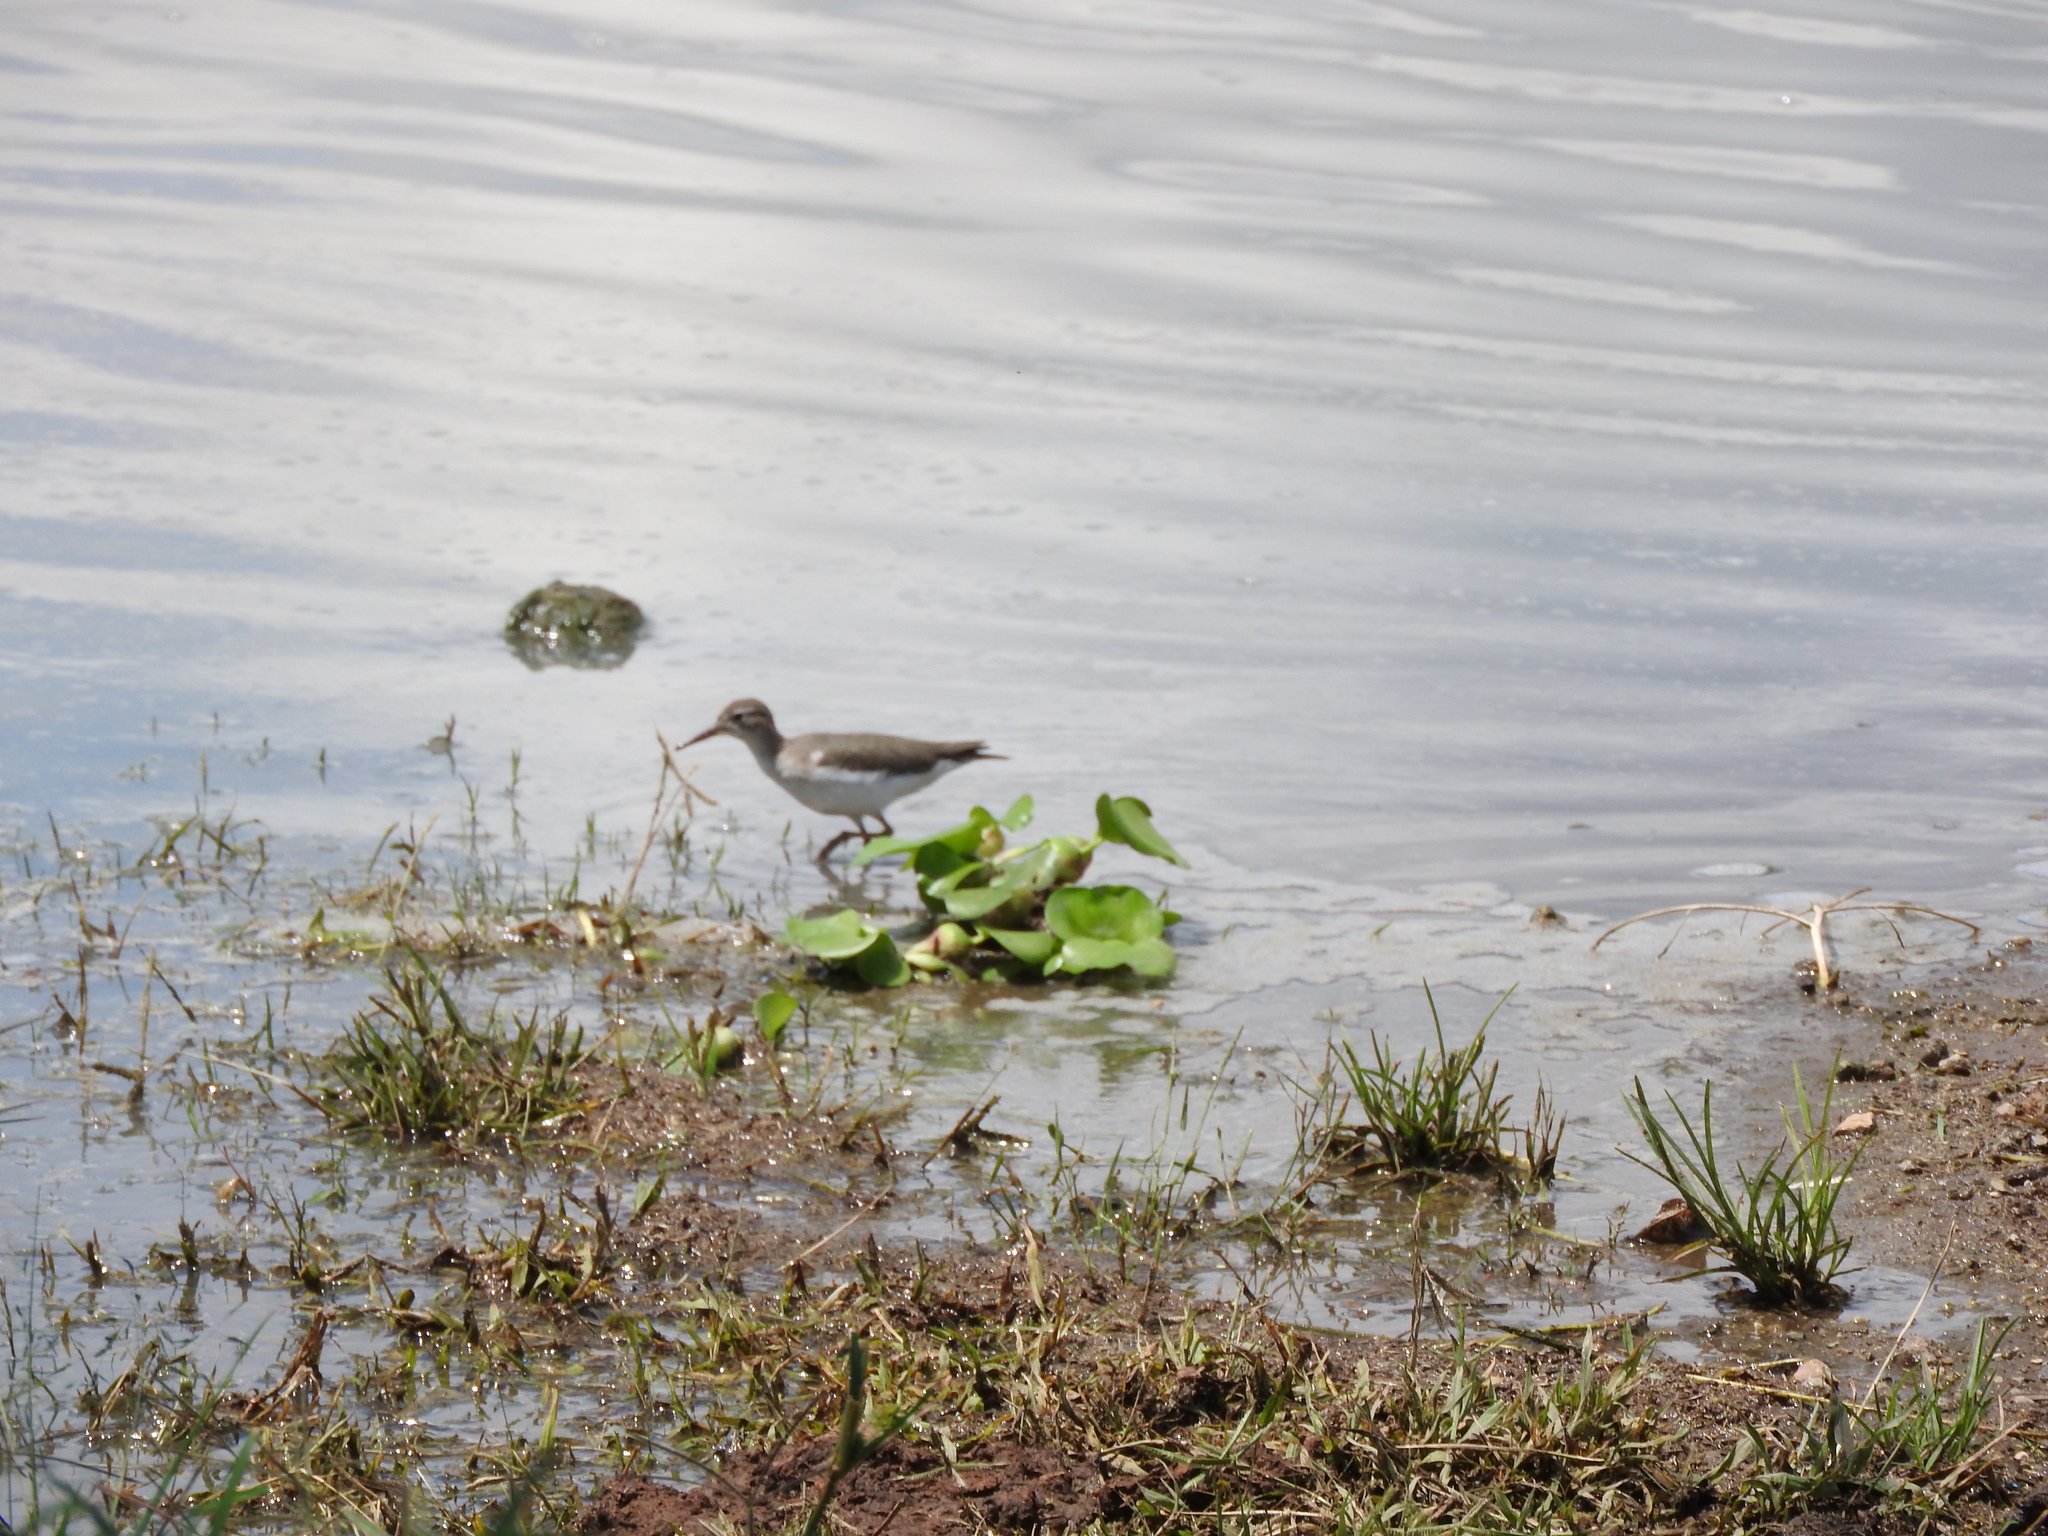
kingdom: Animalia
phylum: Chordata
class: Aves
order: Charadriiformes
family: Scolopacidae
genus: Actitis
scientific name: Actitis macularius
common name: Spotted sandpiper
